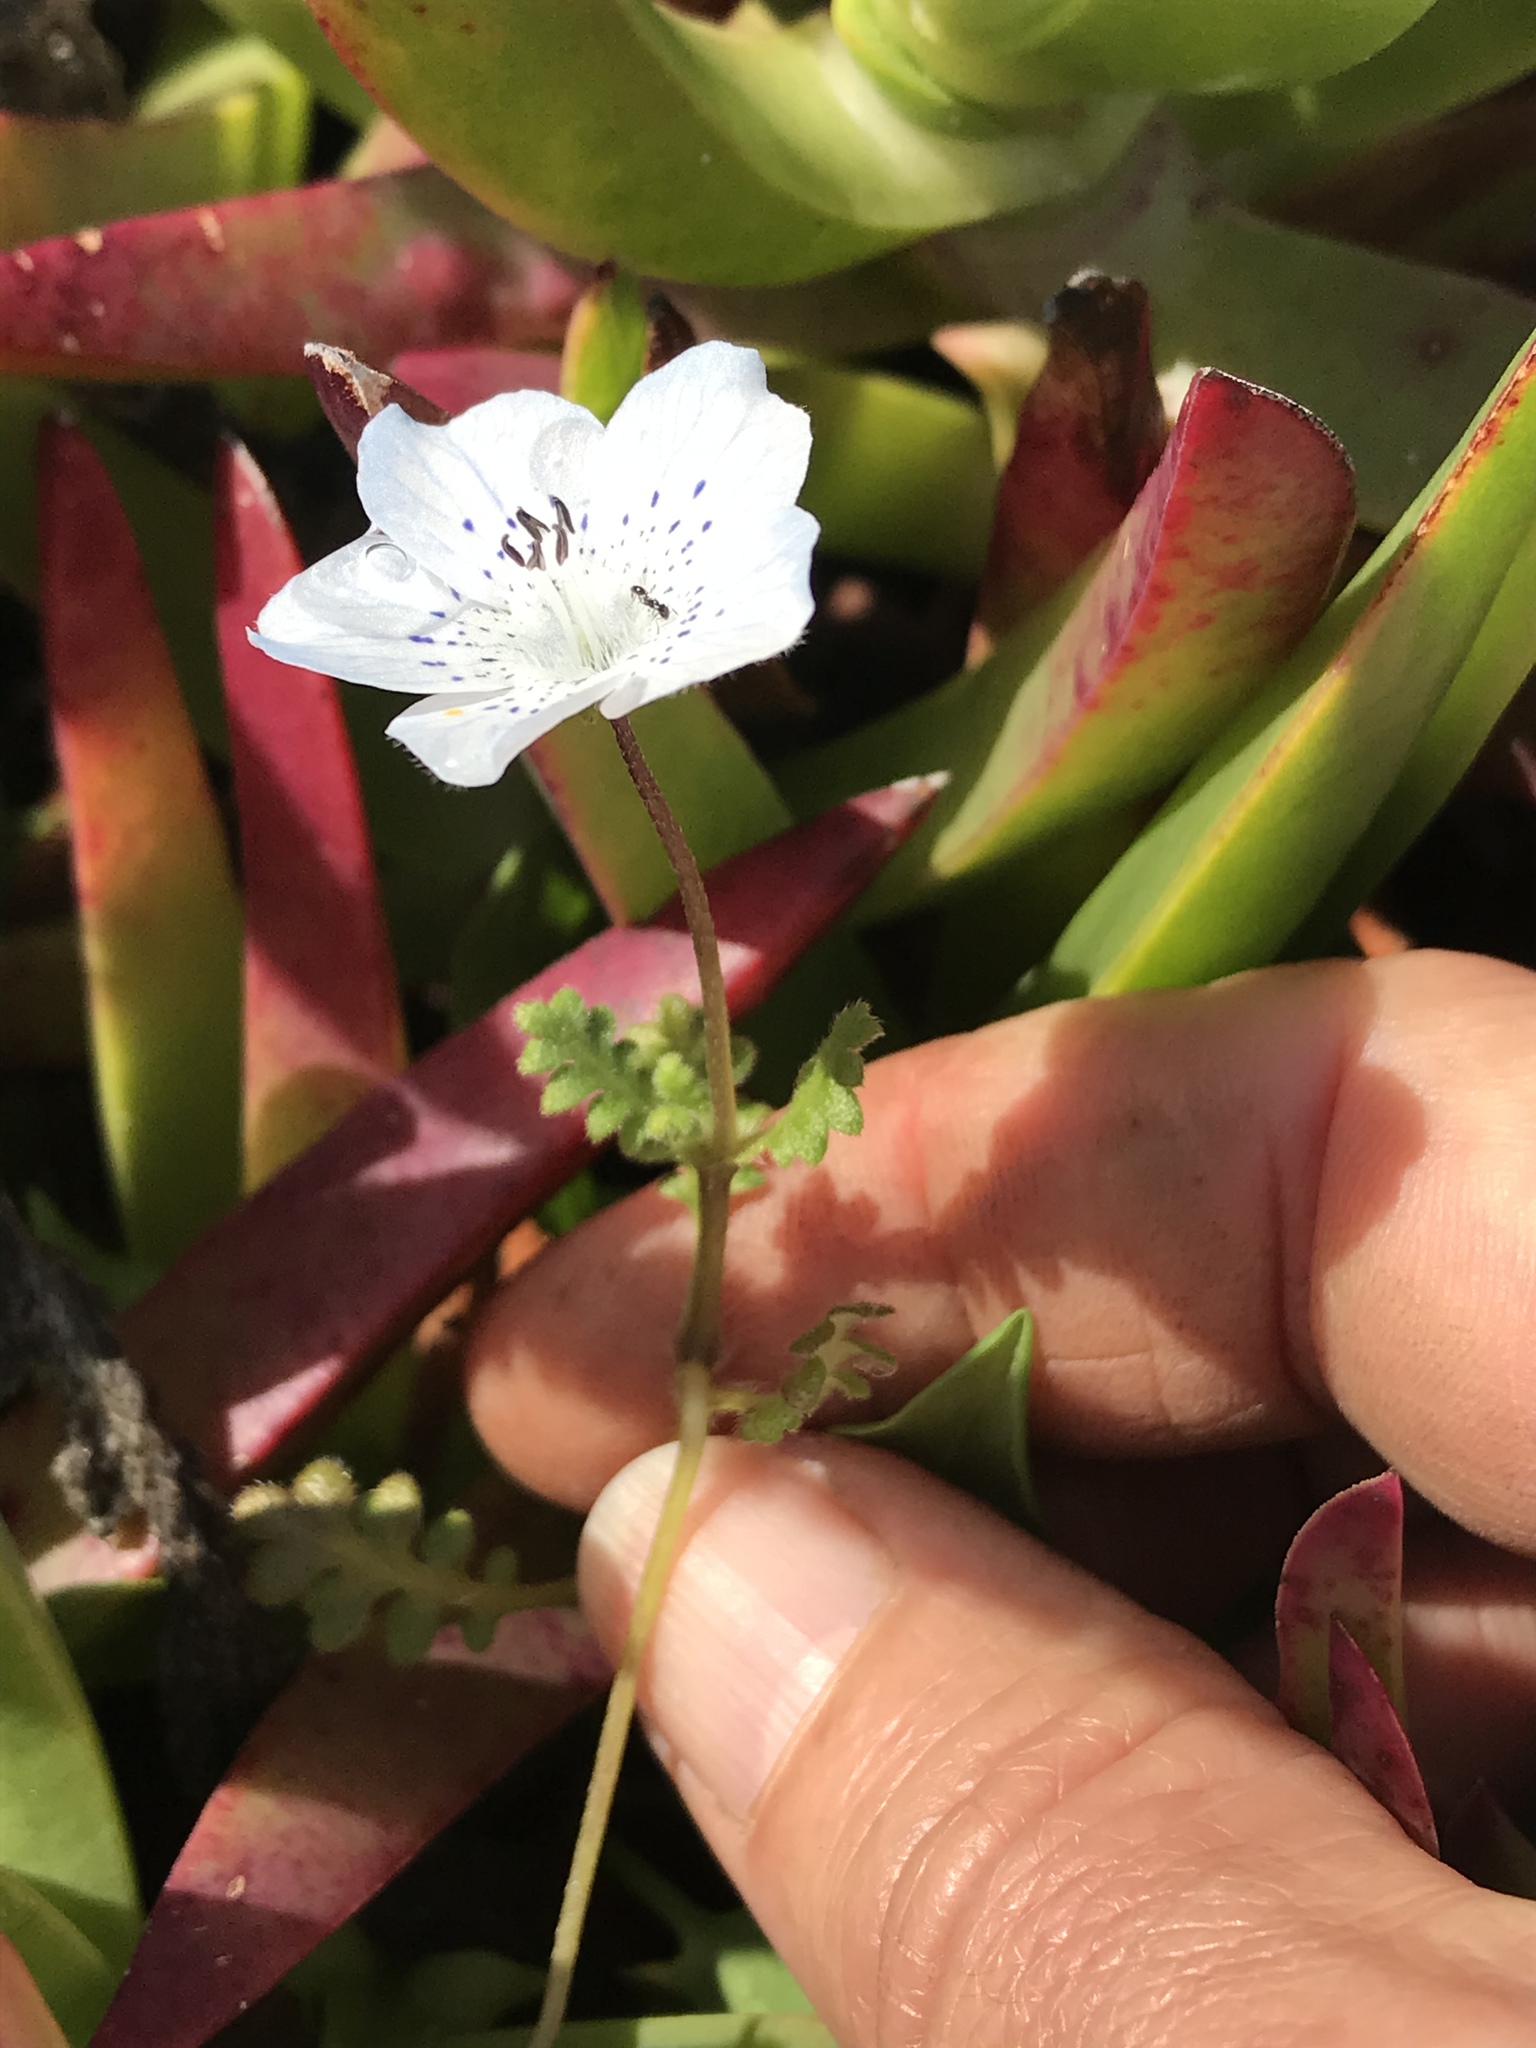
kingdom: Plantae
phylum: Tracheophyta
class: Magnoliopsida
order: Boraginales
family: Hydrophyllaceae
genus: Nemophila
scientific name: Nemophila menziesii
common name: Baby's-blue-eyes
